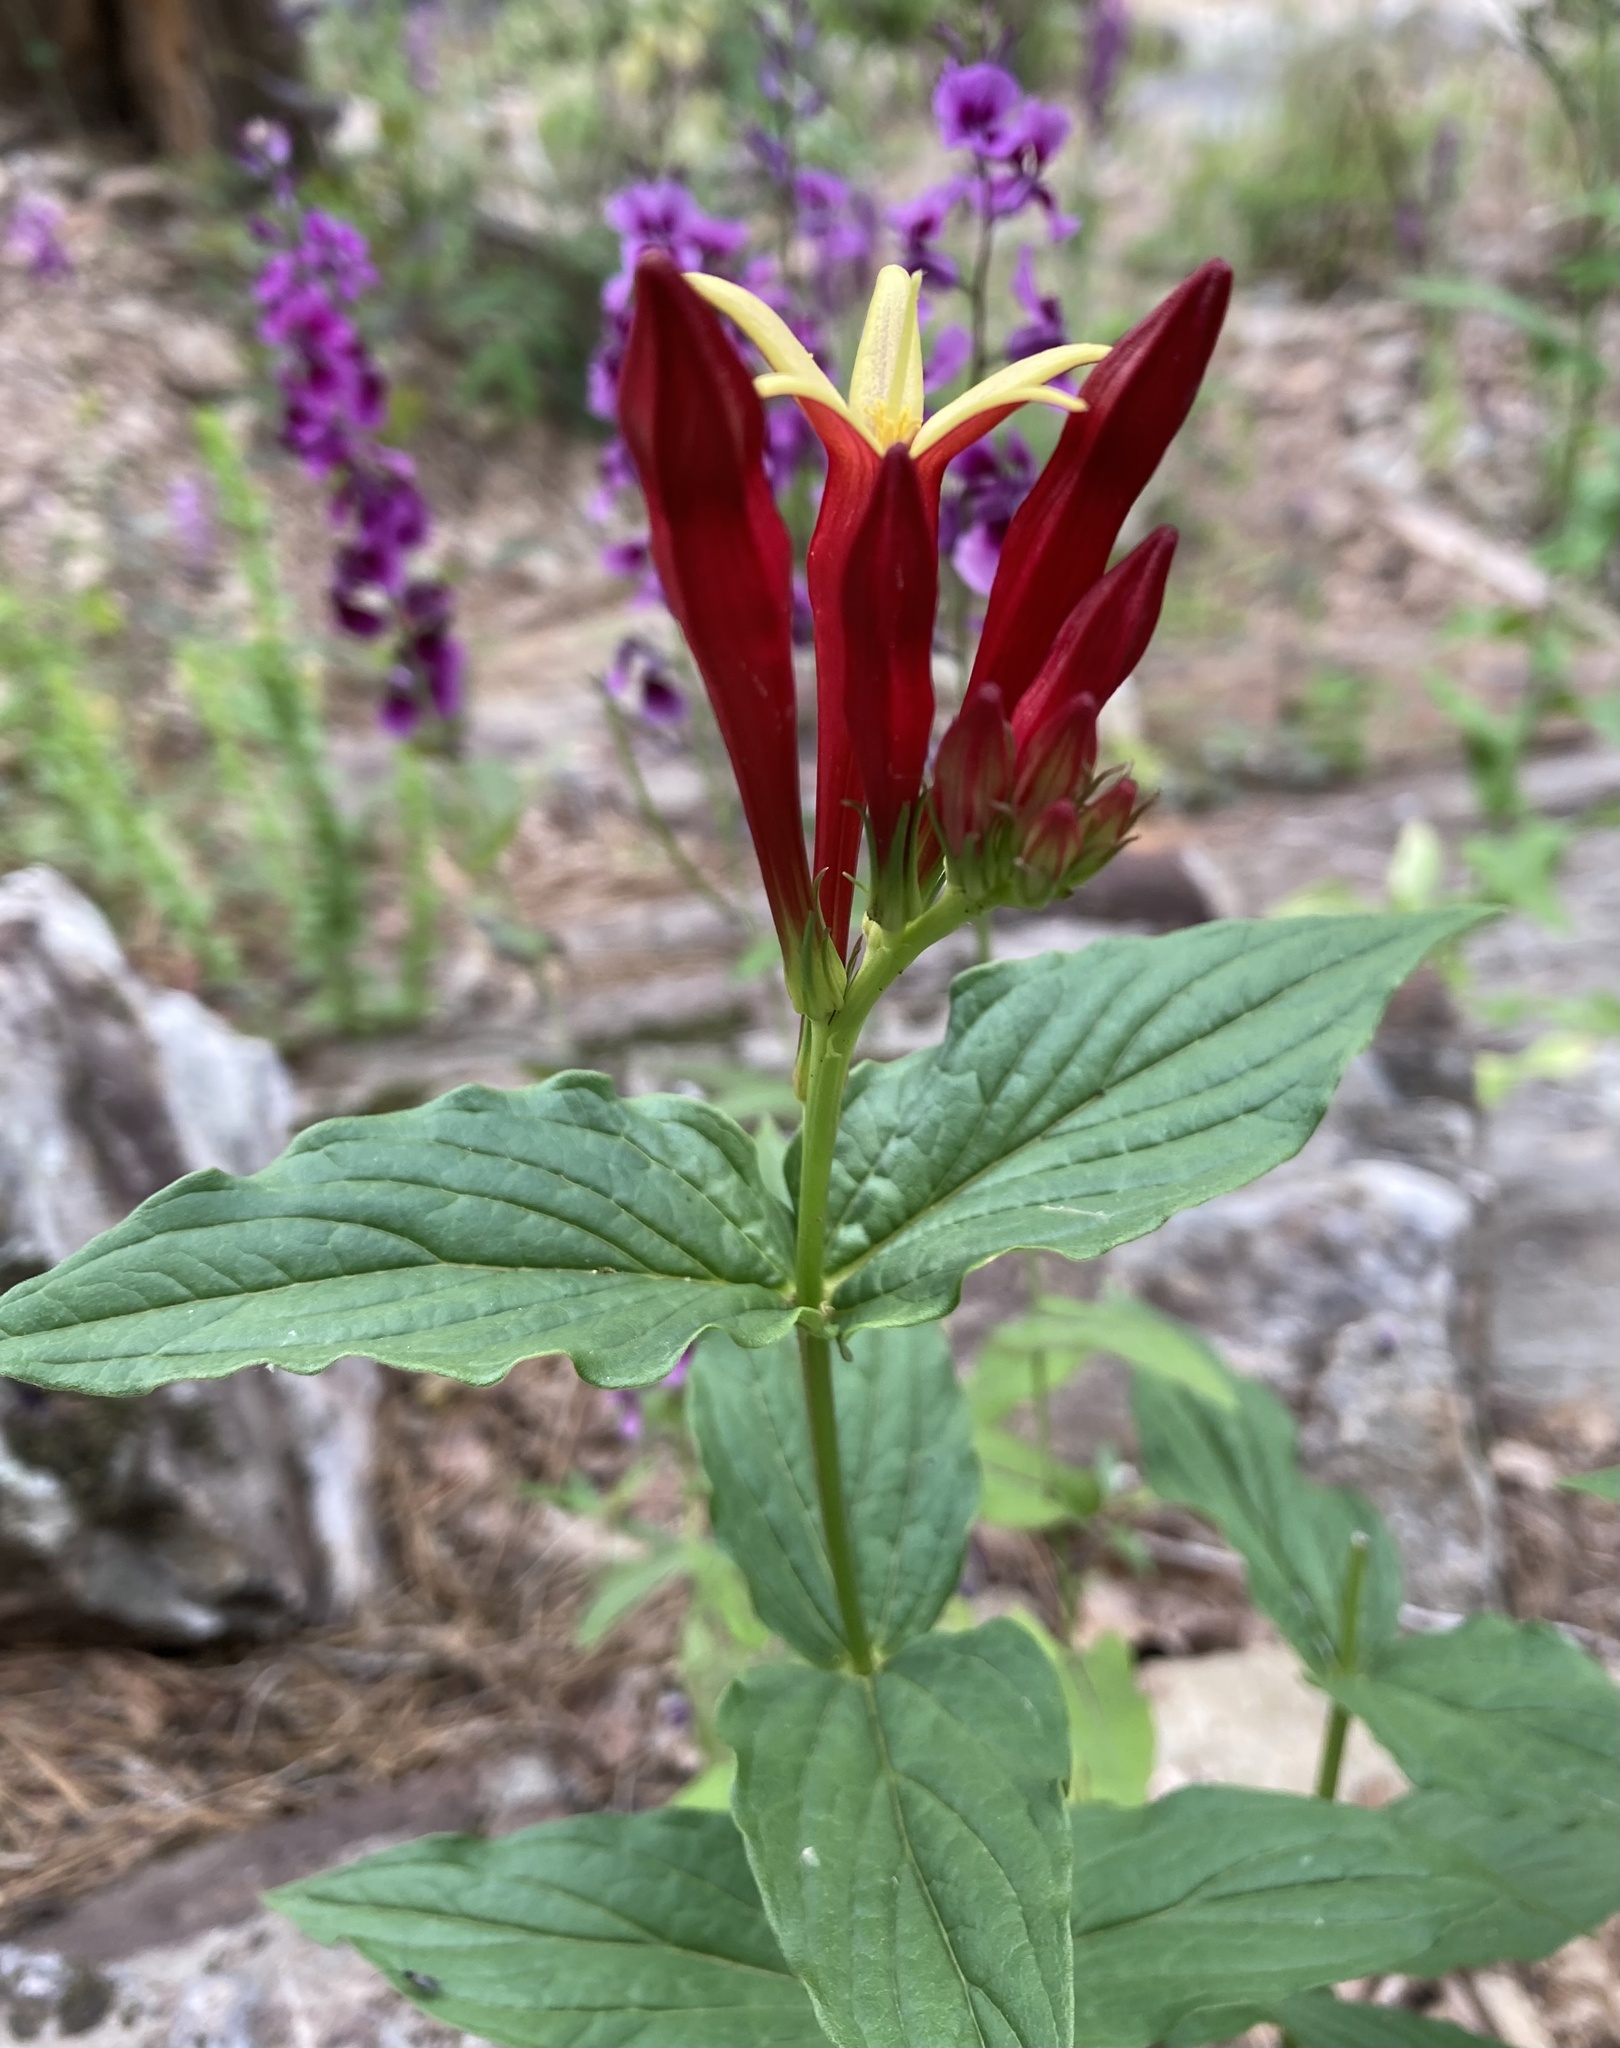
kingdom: Plantae
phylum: Tracheophyta
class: Magnoliopsida
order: Gentianales
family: Loganiaceae
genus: Spigelia
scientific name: Spigelia marilandica
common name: Indian-pink
